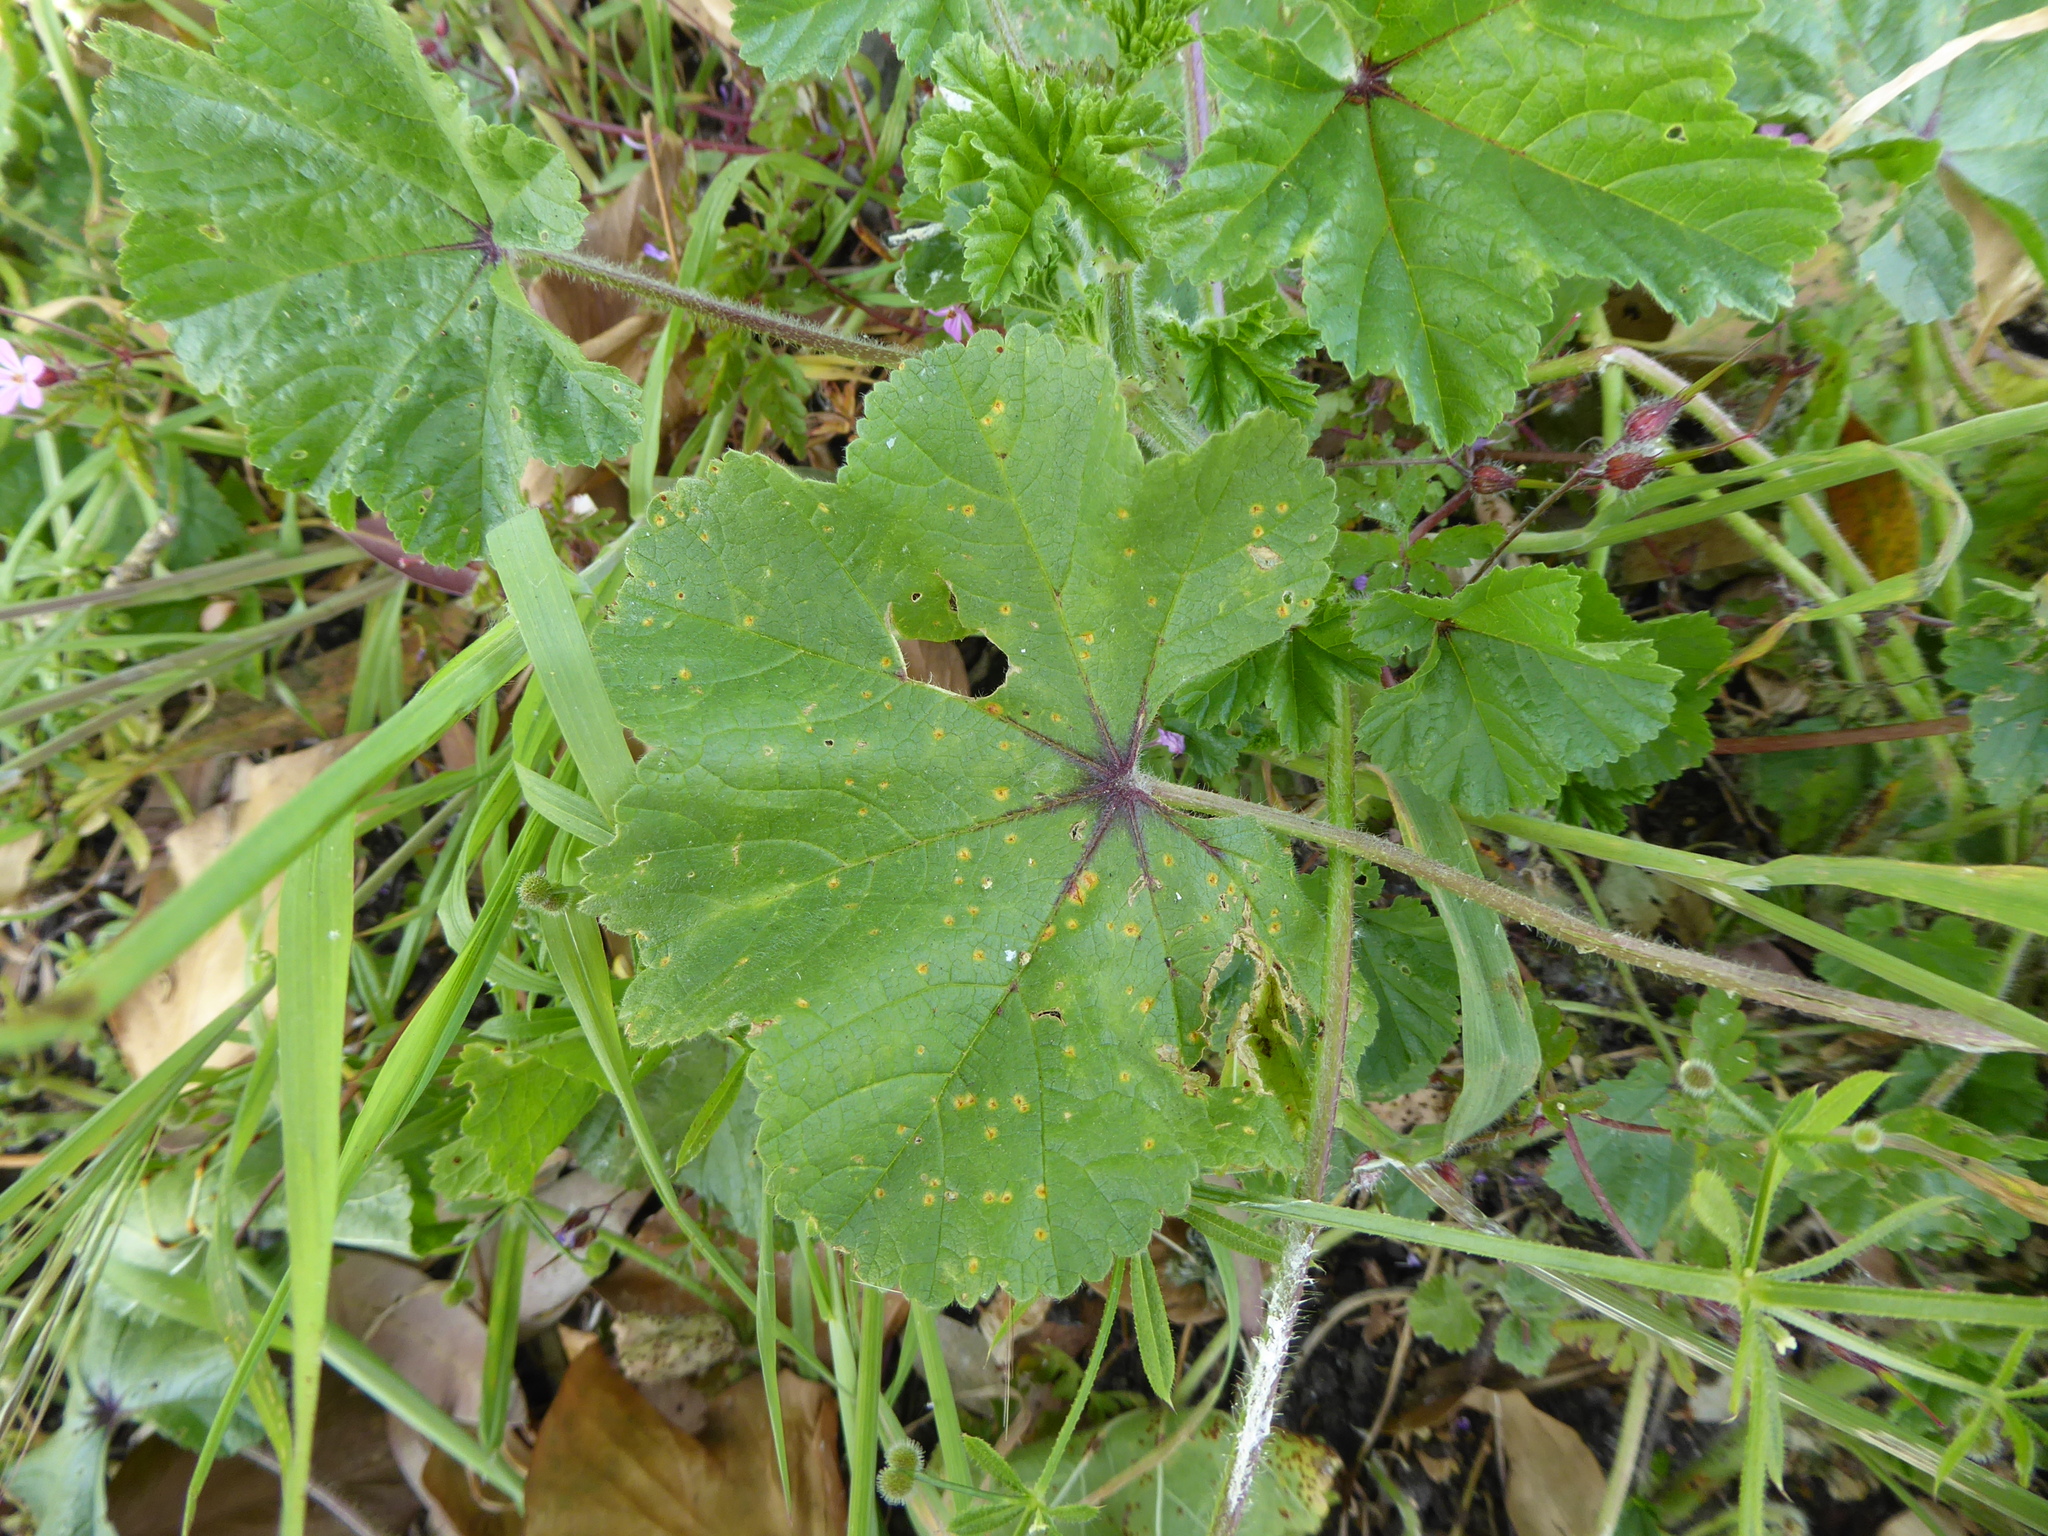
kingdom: Fungi
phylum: Basidiomycota
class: Pucciniomycetes
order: Pucciniales
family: Pucciniaceae
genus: Puccinia
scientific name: Puccinia malvacearum
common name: Hollyhock rust
